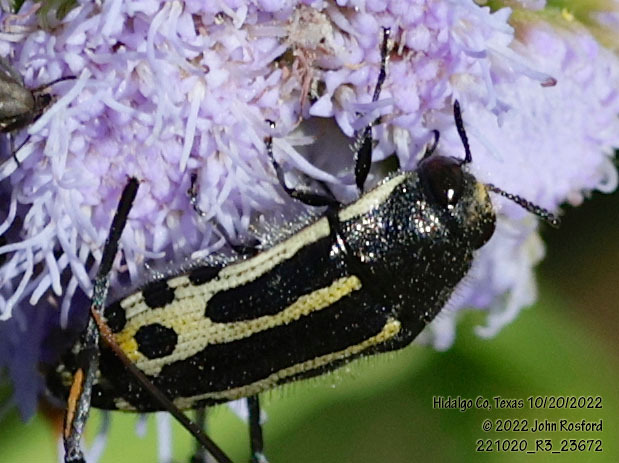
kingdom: Animalia
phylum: Arthropoda
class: Insecta
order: Coleoptera
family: Buprestidae
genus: Acmaeodera
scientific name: Acmaeodera scalaris
